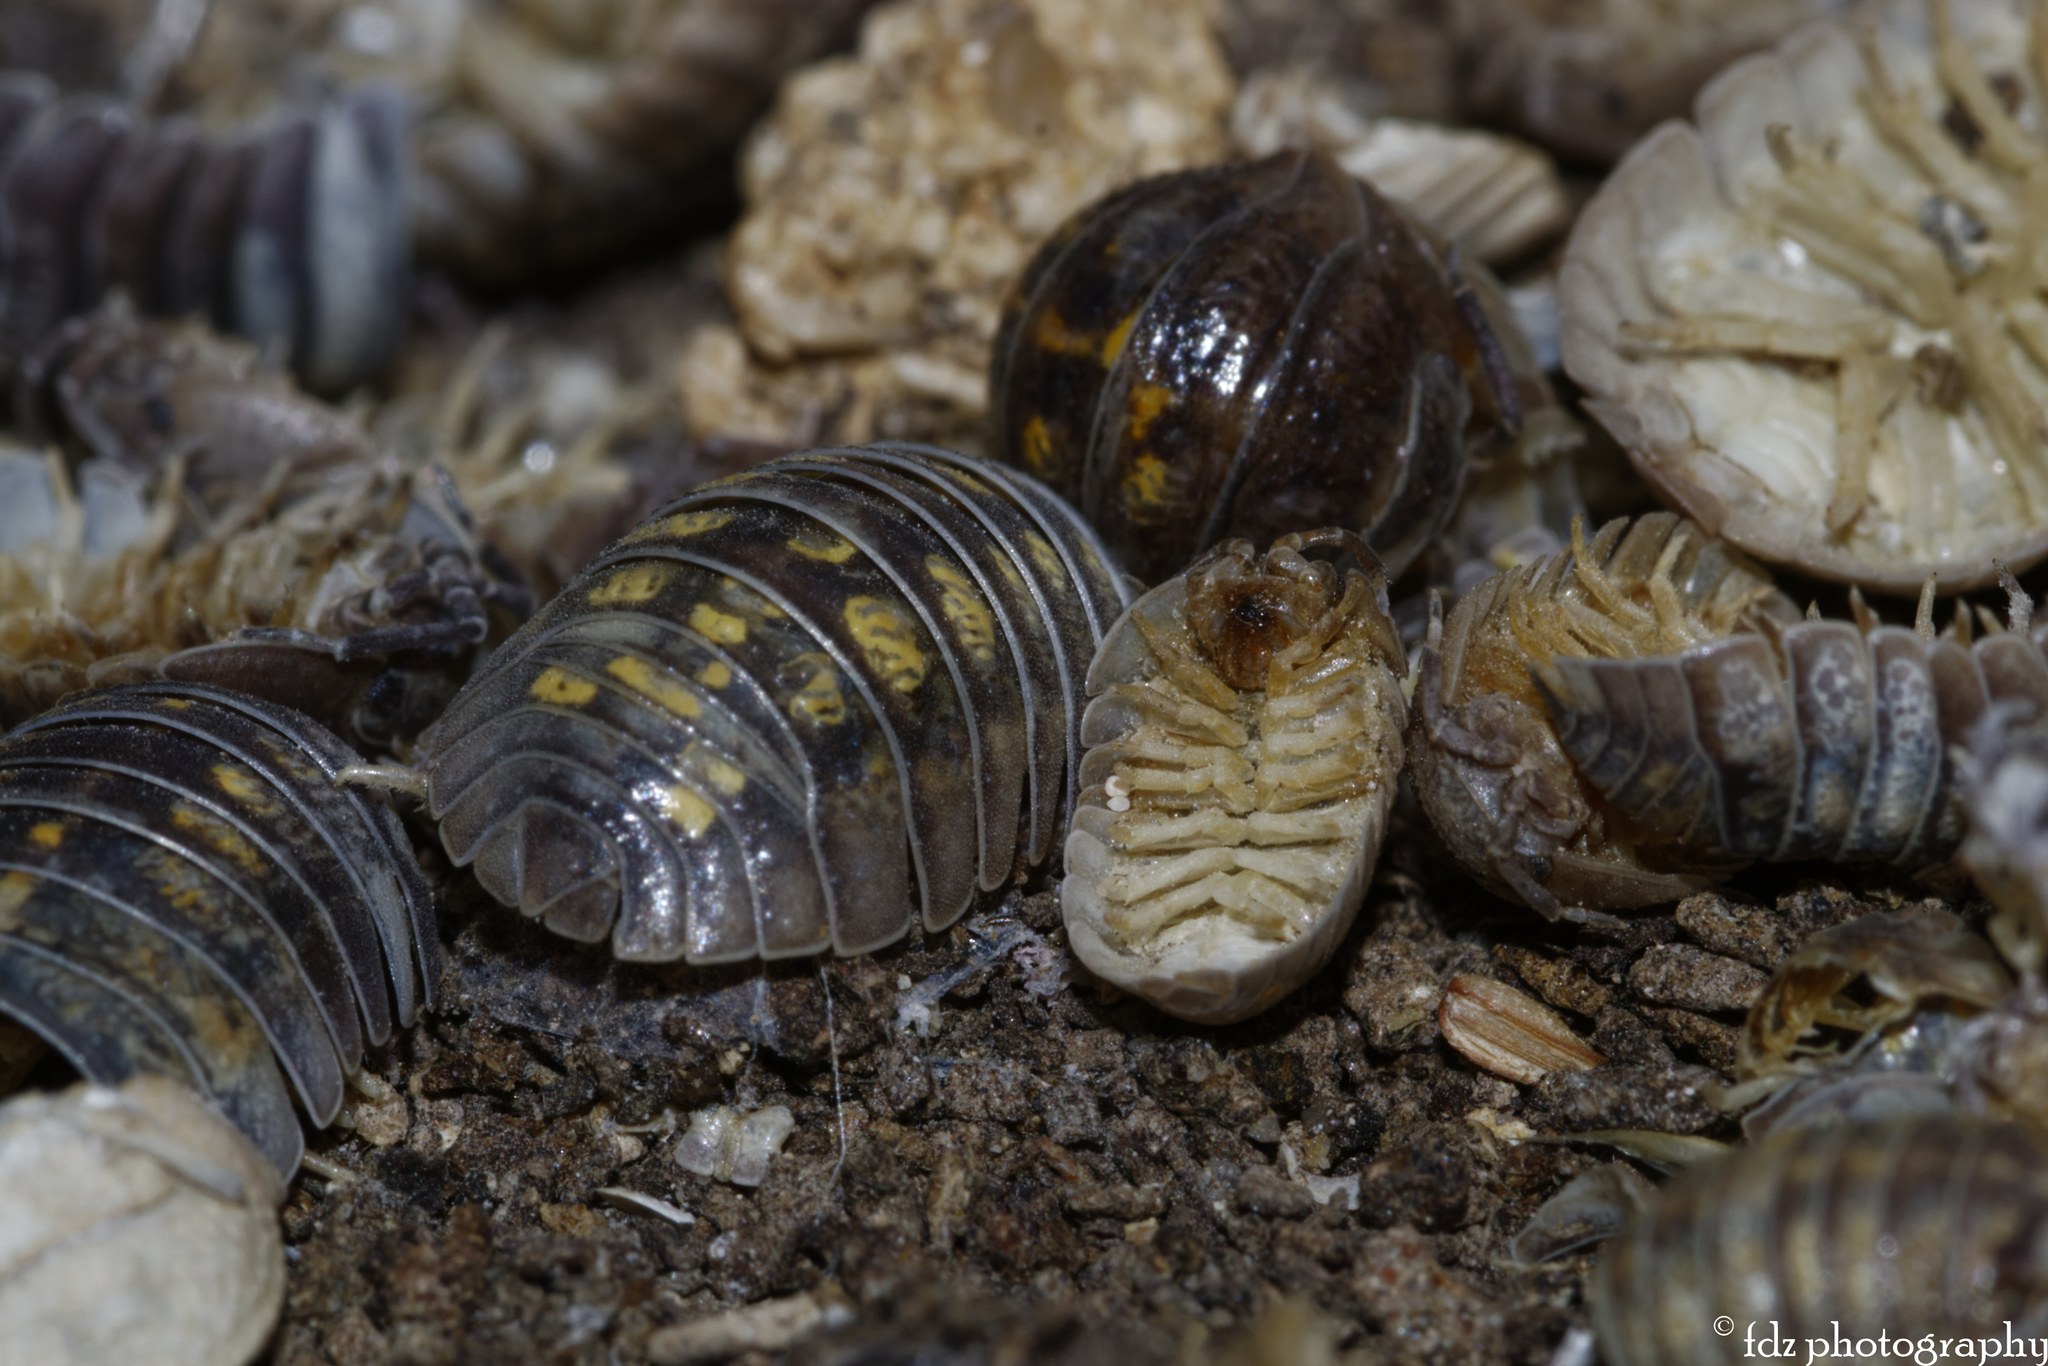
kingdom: Animalia
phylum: Arthropoda
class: Malacostraca
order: Isopoda
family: Armadillidiidae
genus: Armadillidium
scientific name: Armadillidium granulatum
